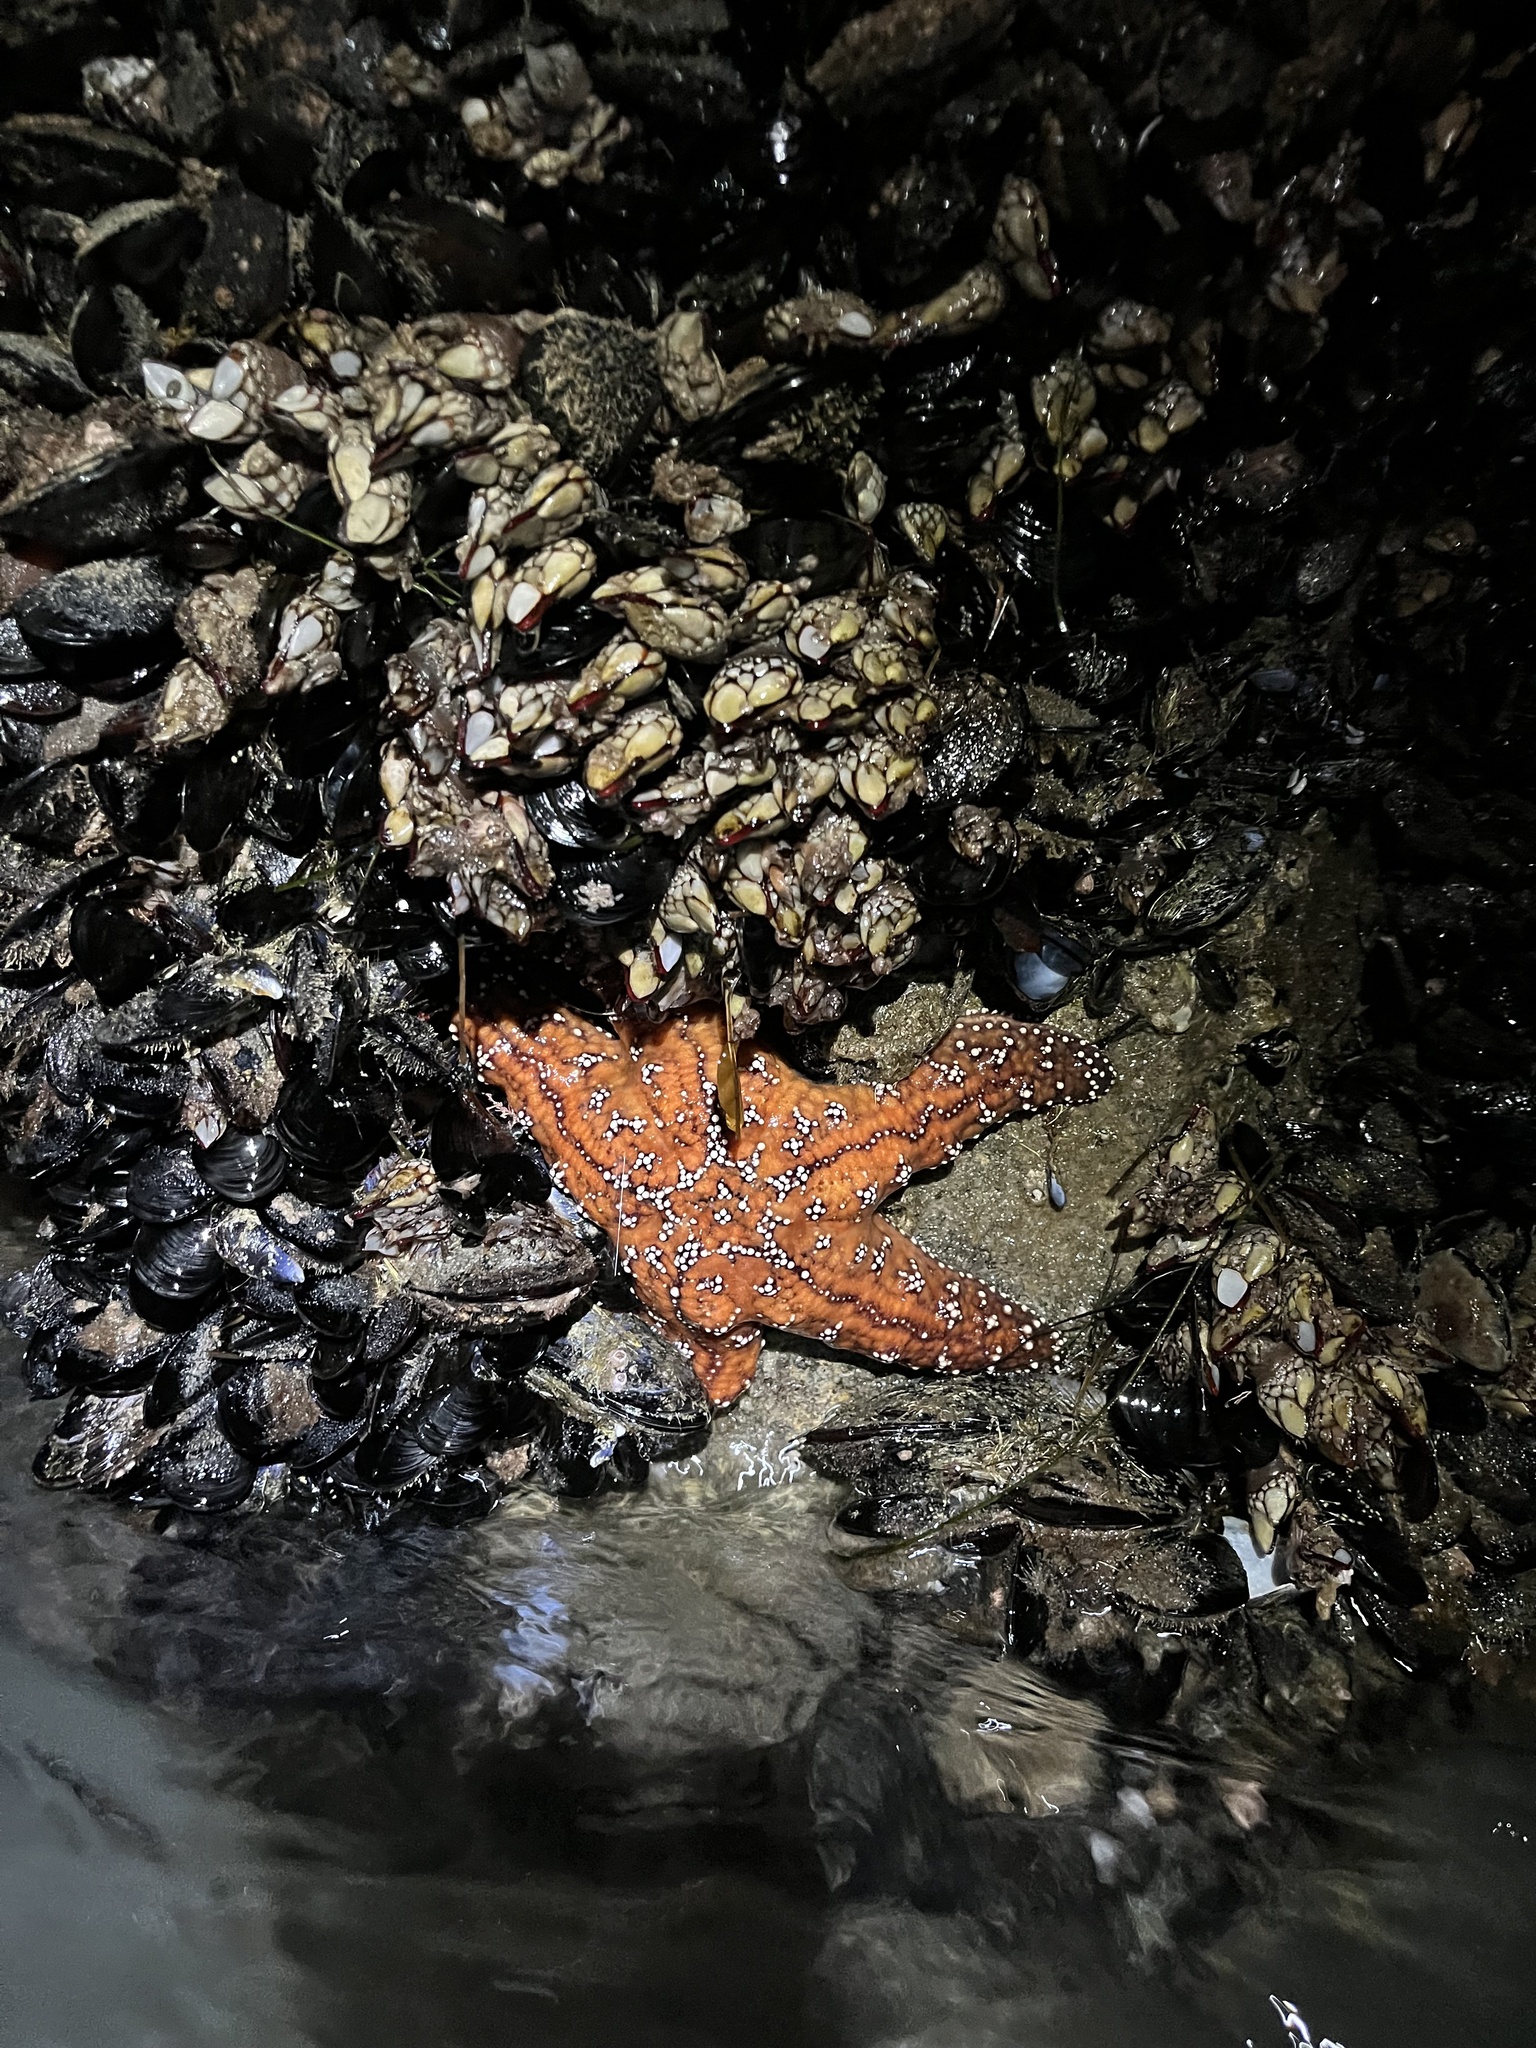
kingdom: Animalia
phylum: Echinodermata
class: Asteroidea
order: Forcipulatida
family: Asteriidae
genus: Pisaster
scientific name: Pisaster ochraceus
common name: Ochre stars
